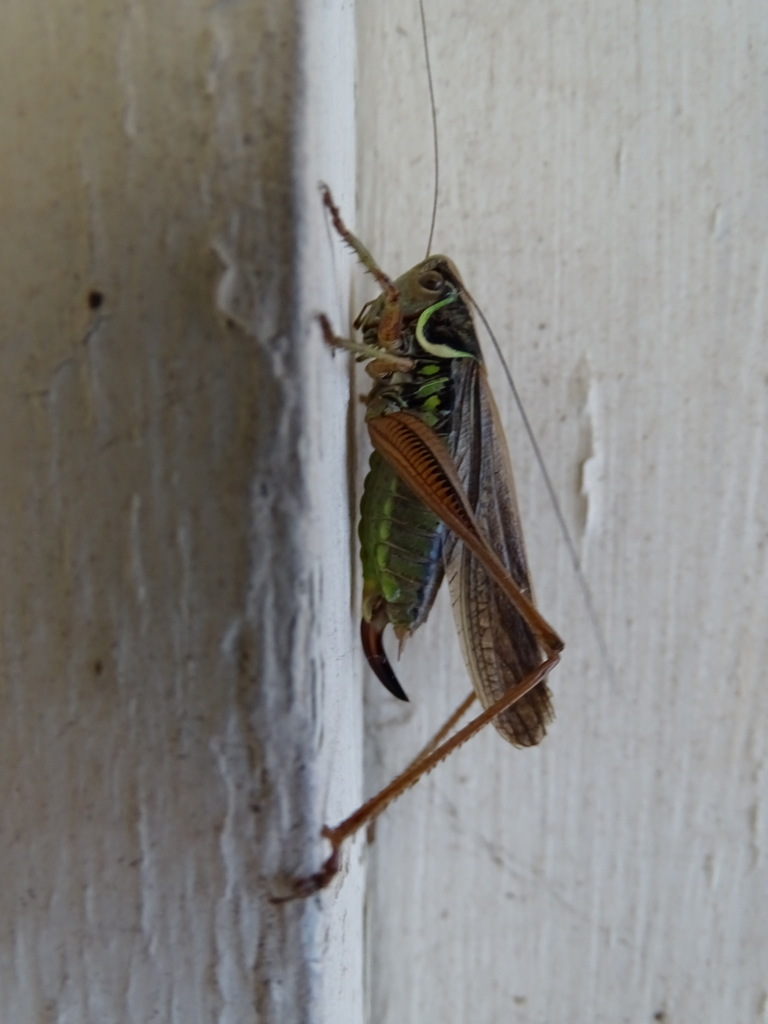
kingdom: Animalia
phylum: Arthropoda
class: Insecta
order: Orthoptera
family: Tettigoniidae
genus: Roeseliana
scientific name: Roeseliana roeselii
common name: Roesel's bush cricket
